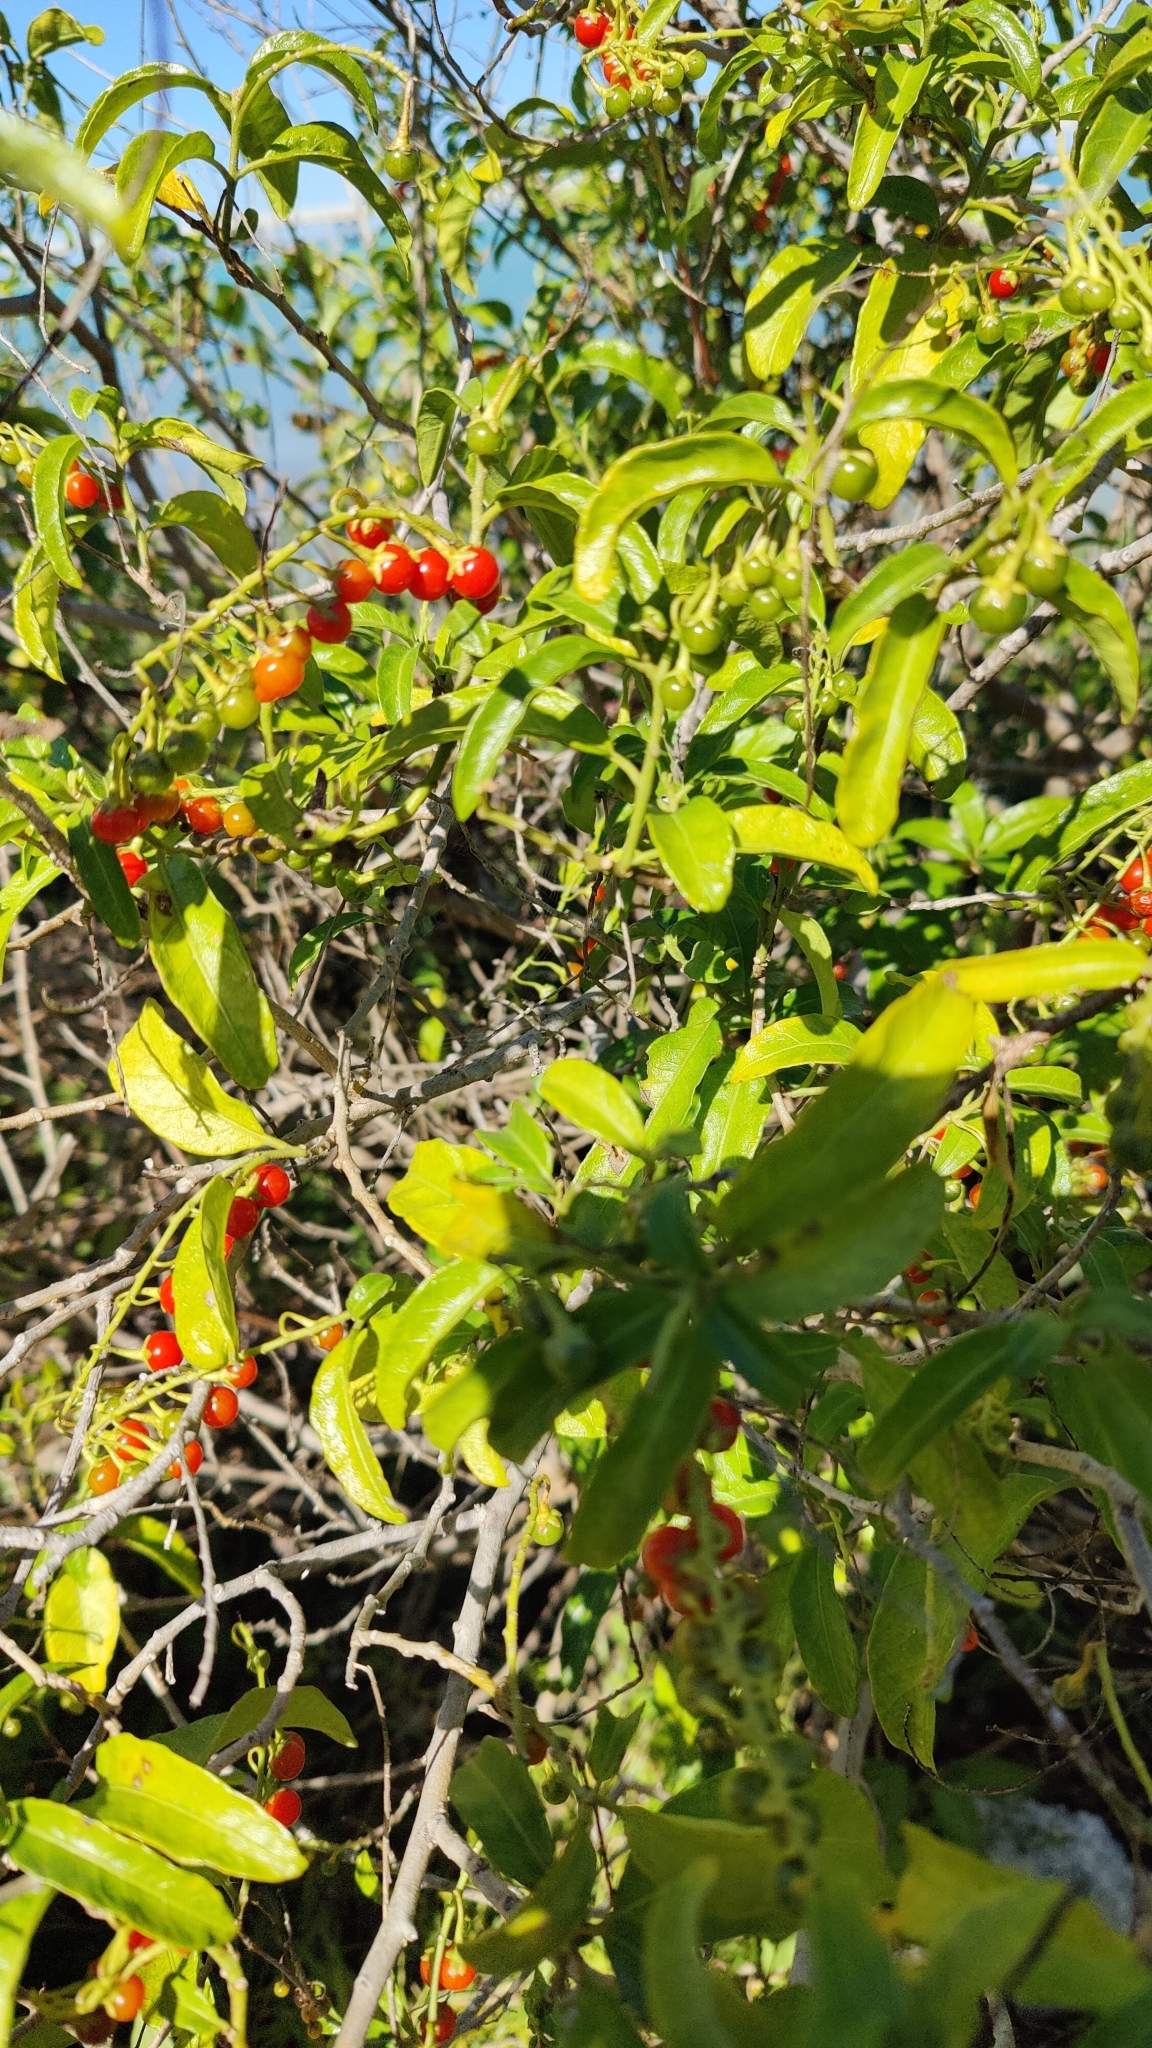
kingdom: Plantae
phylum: Tracheophyta
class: Magnoliopsida
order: Solanales
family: Solanaceae
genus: Solanum
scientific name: Solanum bahamense
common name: Canker-berry
